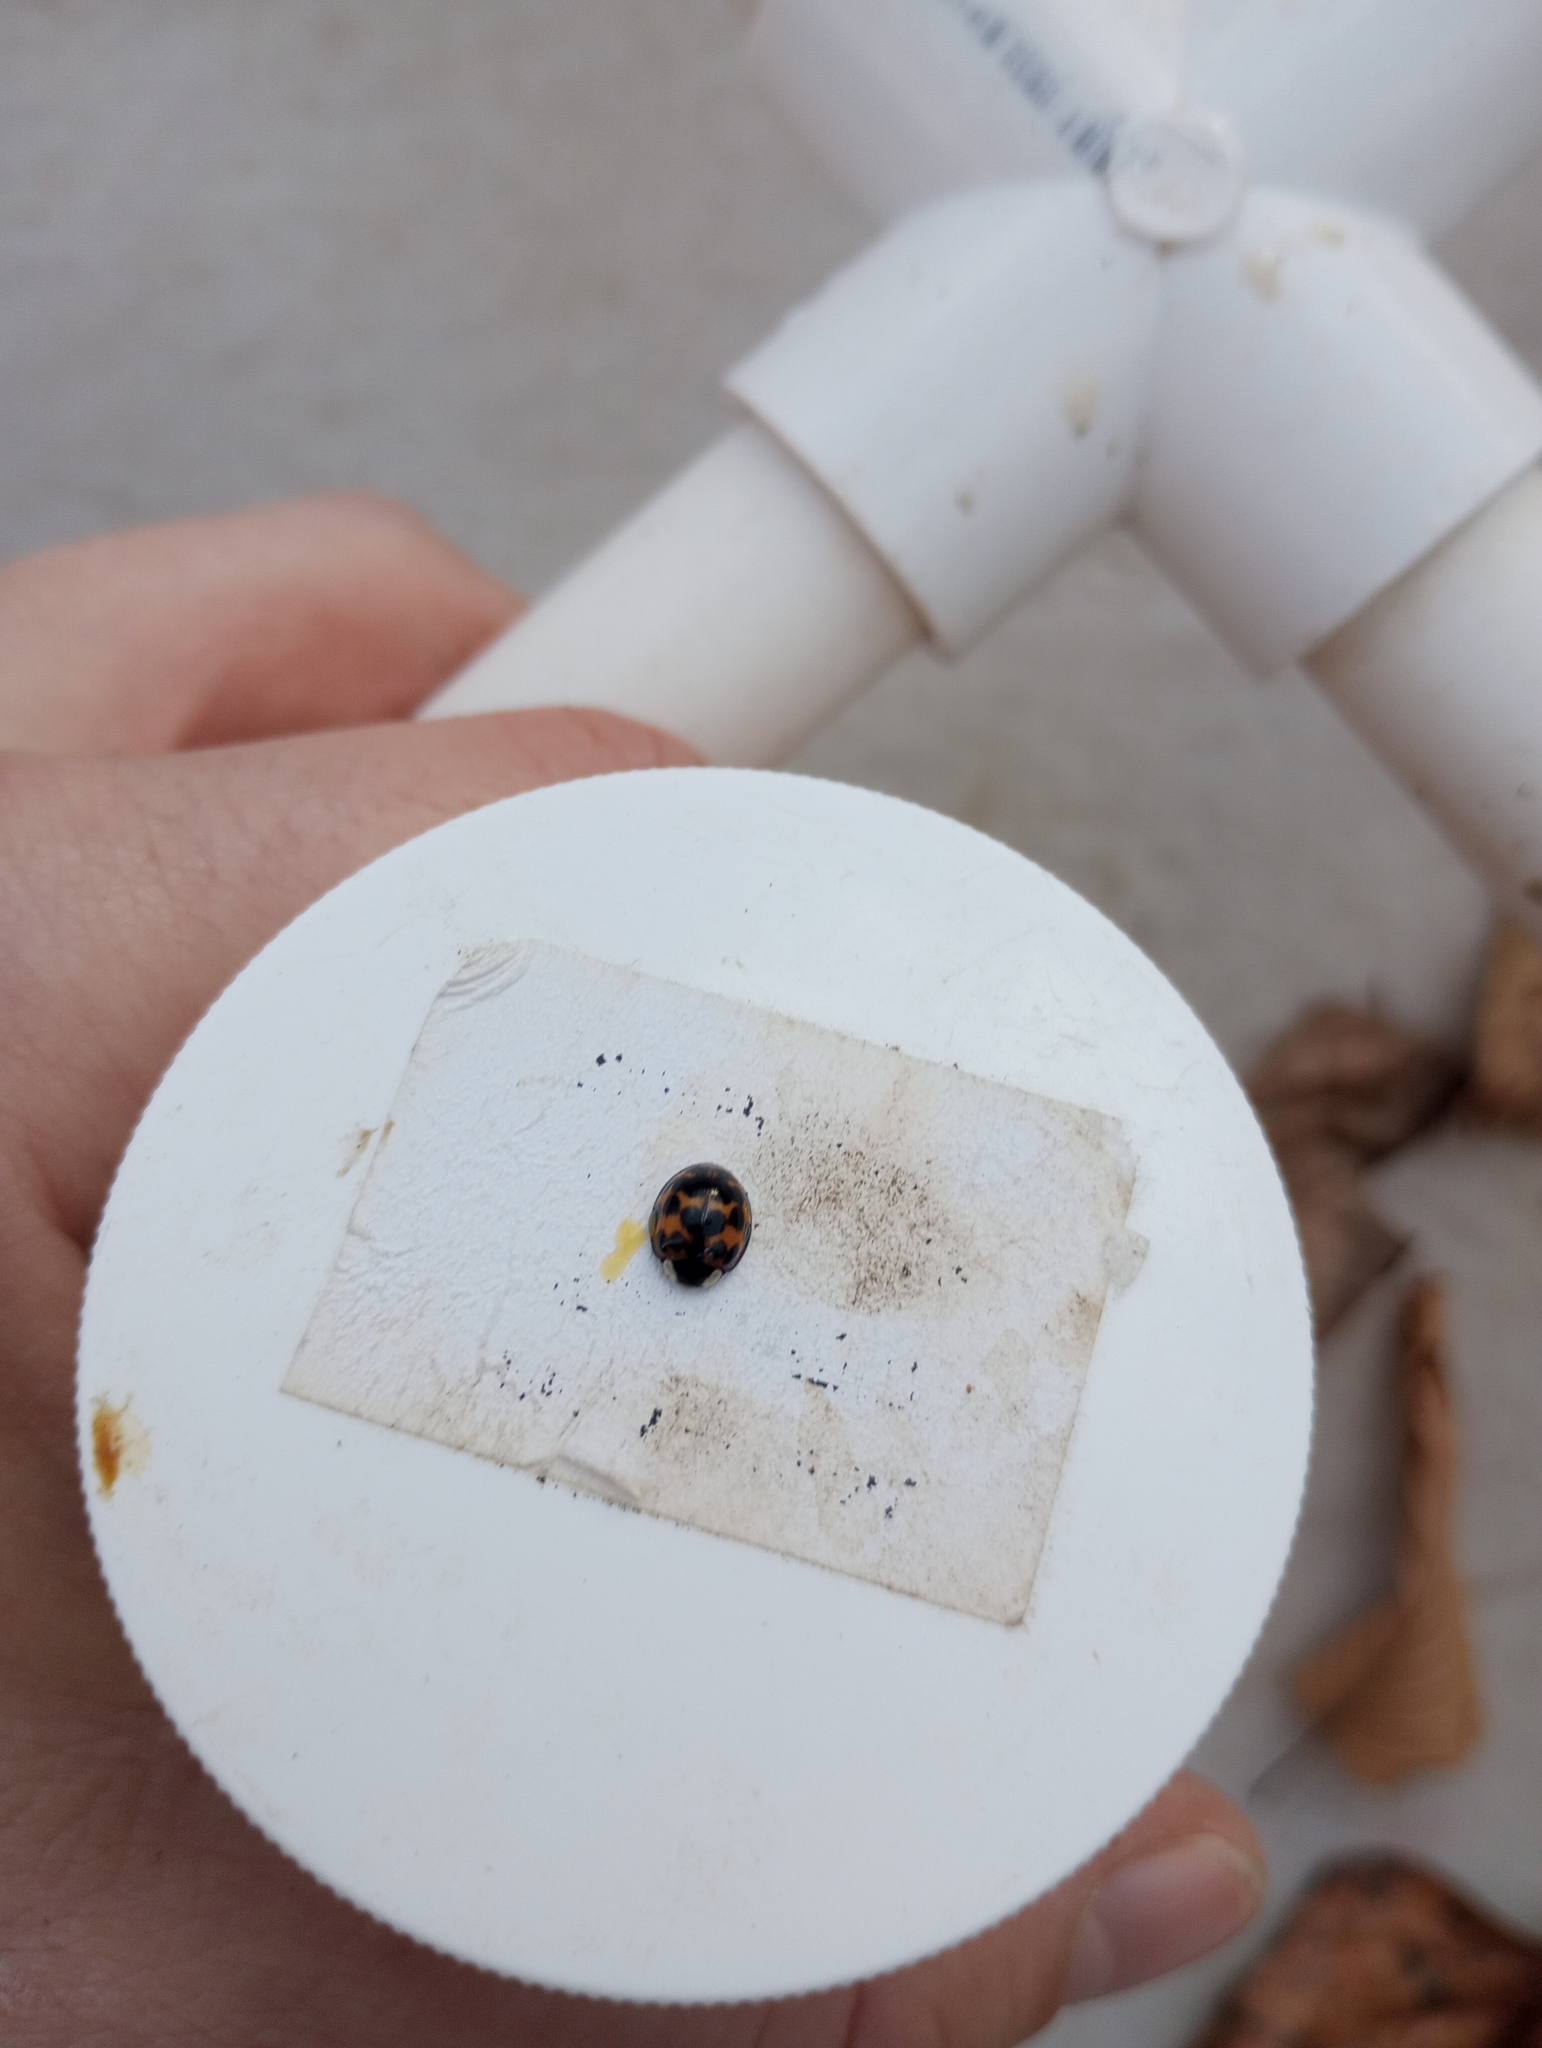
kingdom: Animalia
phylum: Arthropoda
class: Insecta
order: Coleoptera
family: Coccinellidae
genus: Harmonia
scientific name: Harmonia axyridis
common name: Harlequin ladybird
